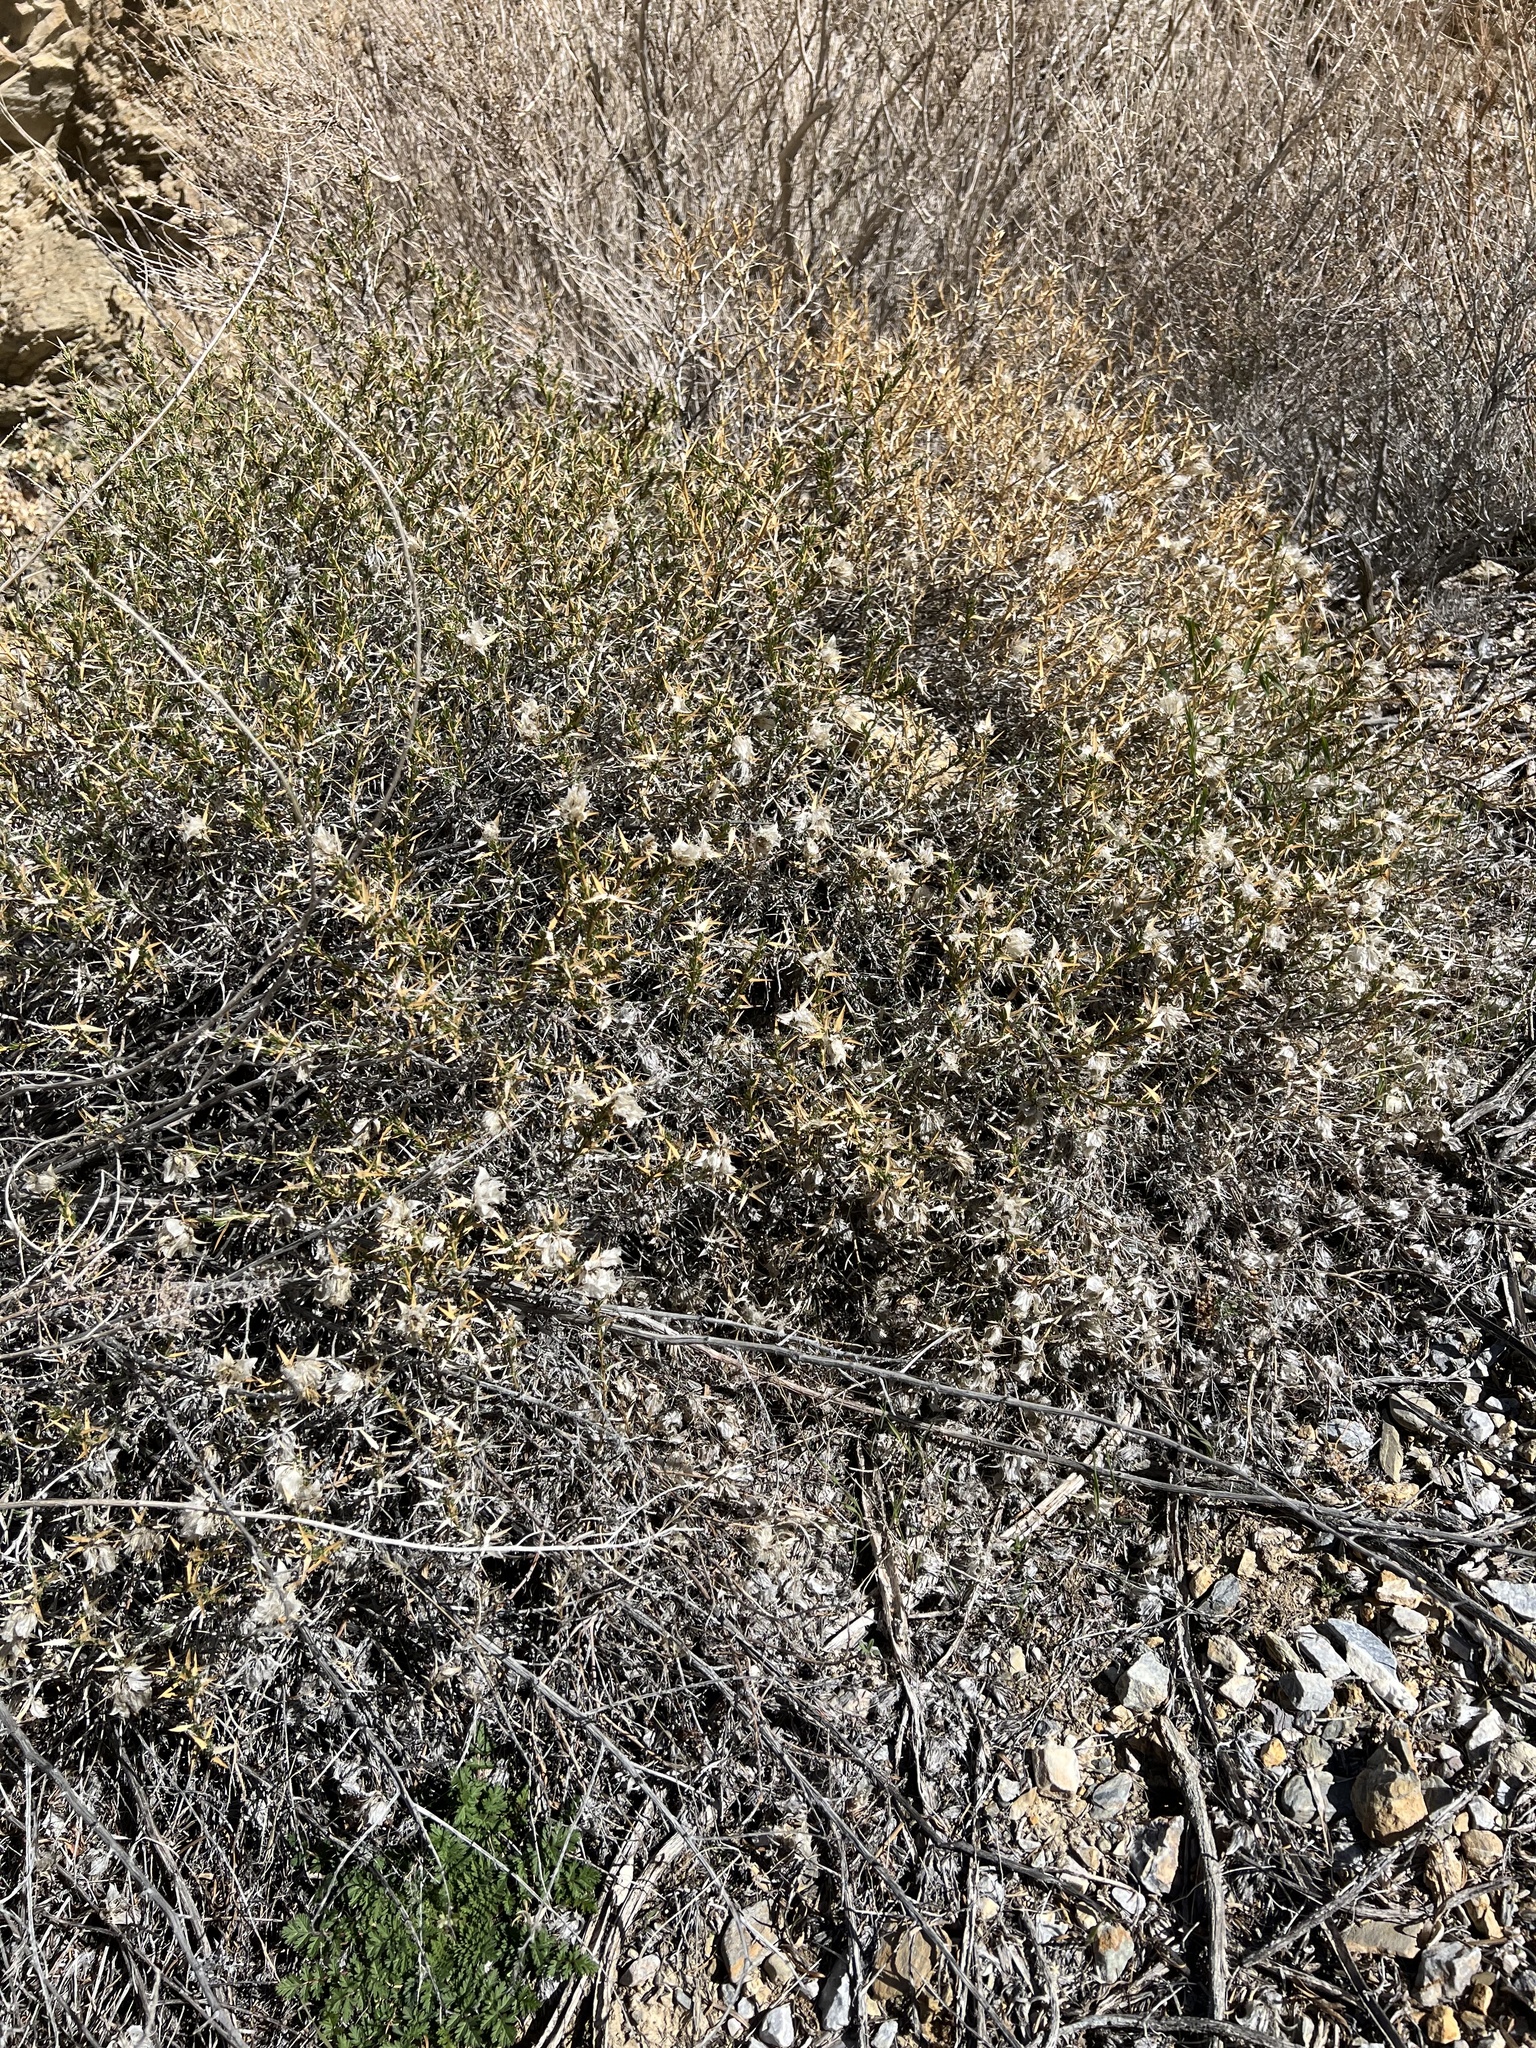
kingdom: Plantae
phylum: Tracheophyta
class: Magnoliopsida
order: Asterales
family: Asteraceae
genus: Hecastocleis
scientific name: Hecastocleis shockleyi
